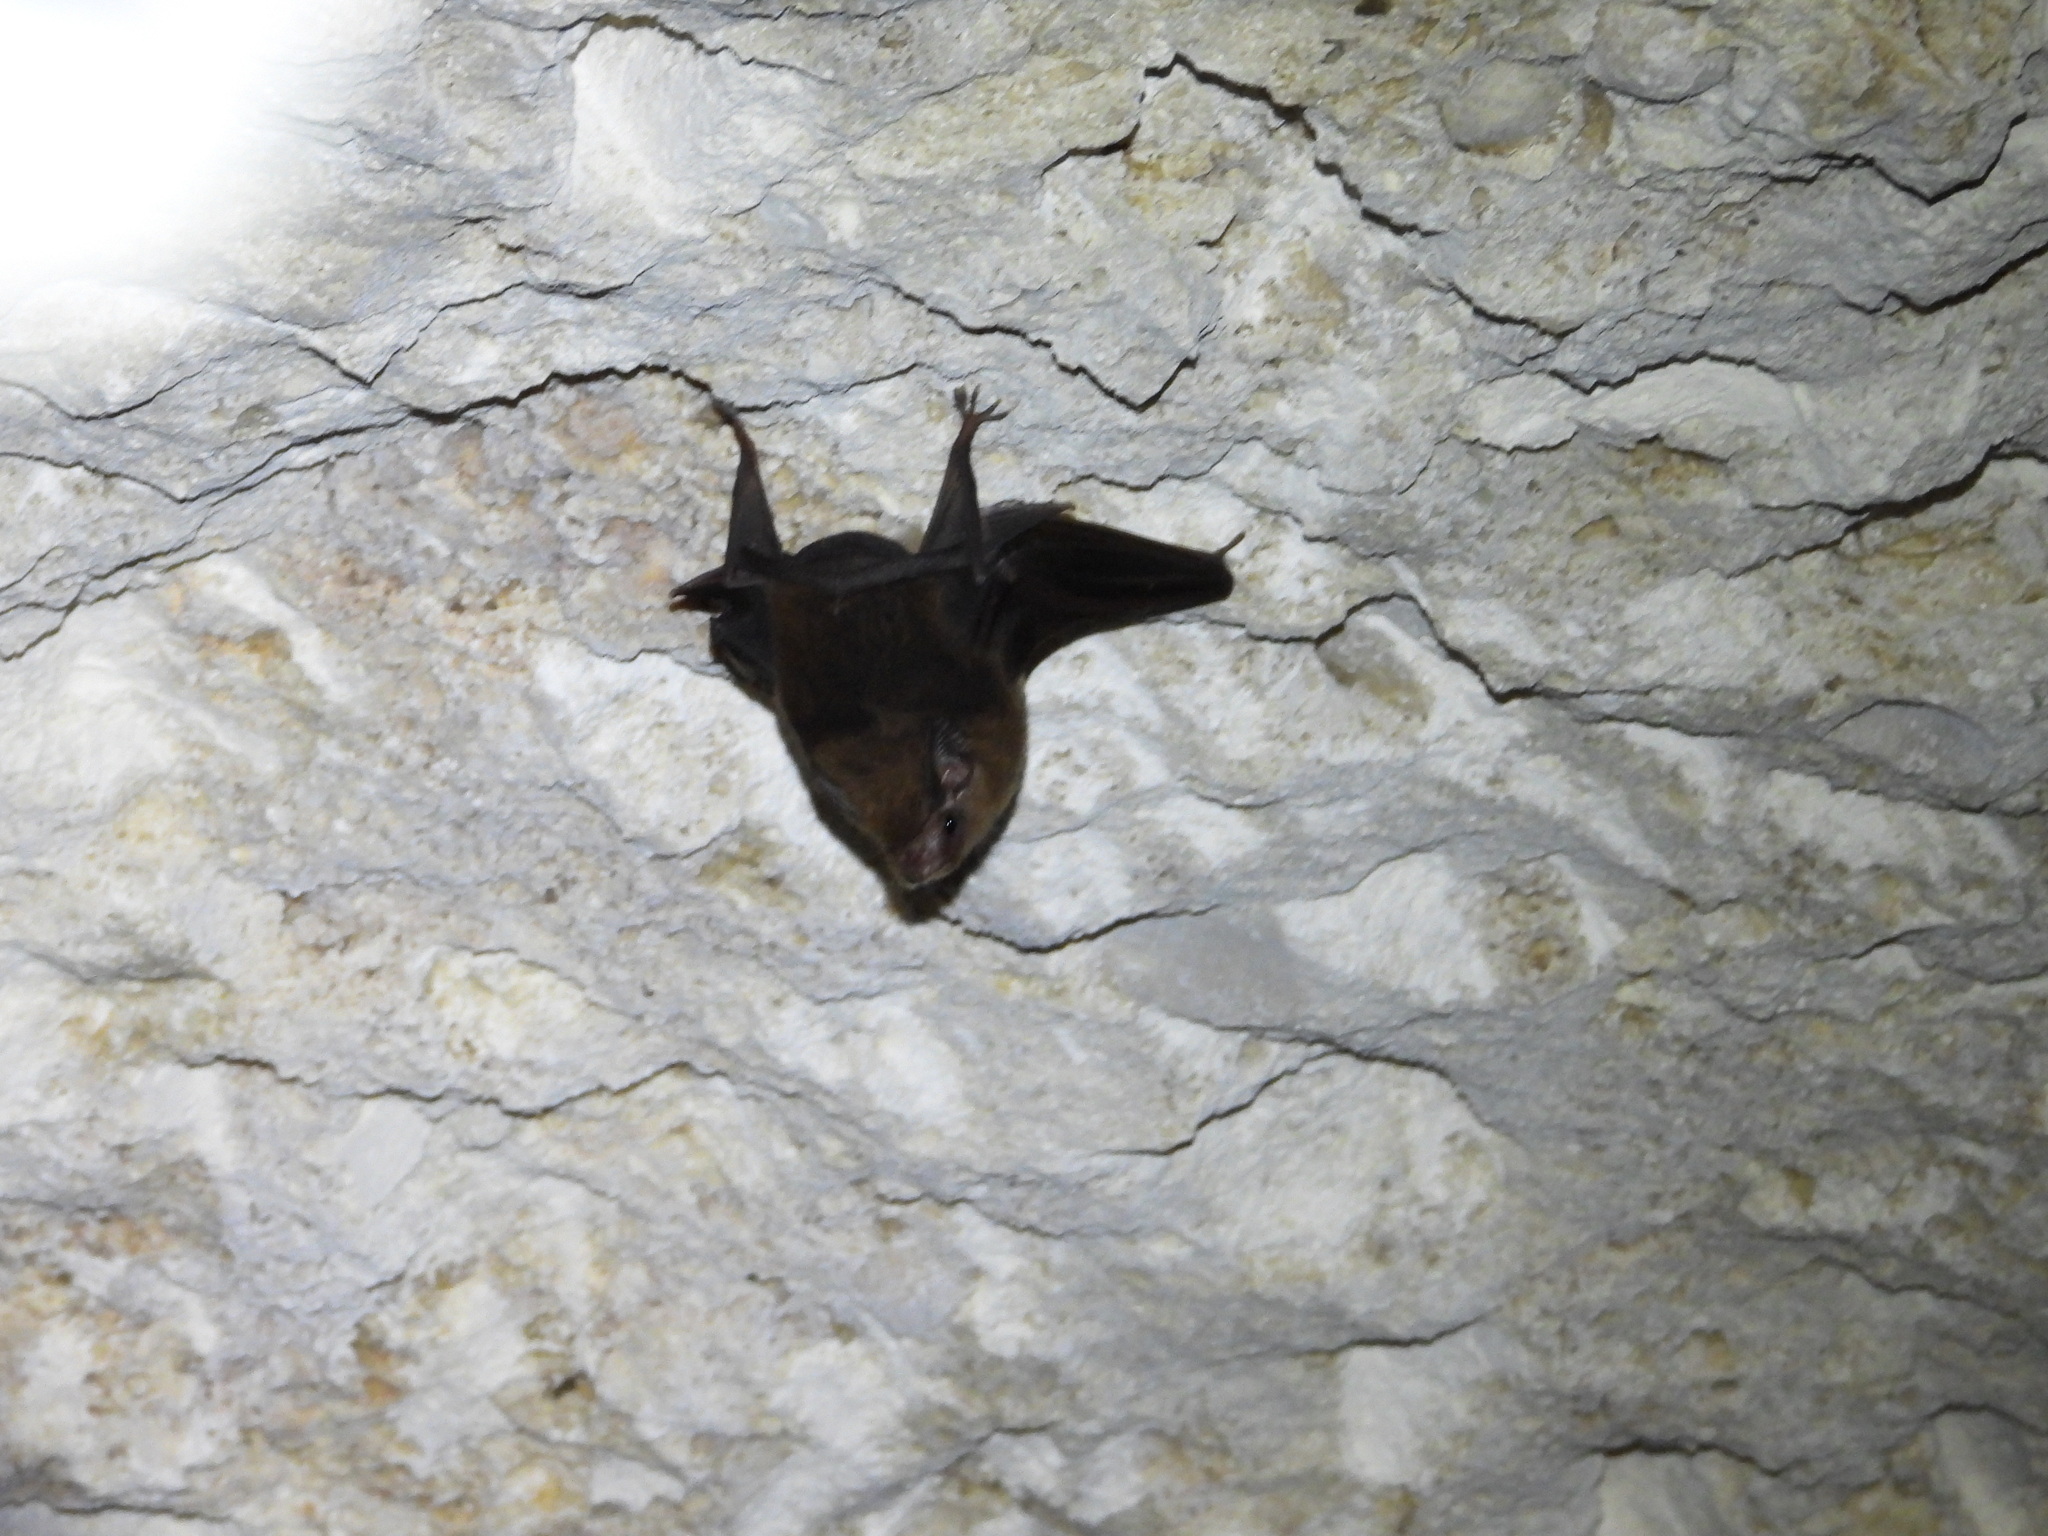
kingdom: Animalia
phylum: Chordata
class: Mammalia
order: Chiroptera
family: Emballonuridae
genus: Peropteryx
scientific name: Peropteryx macrotis
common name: Lesser dog-like bat
